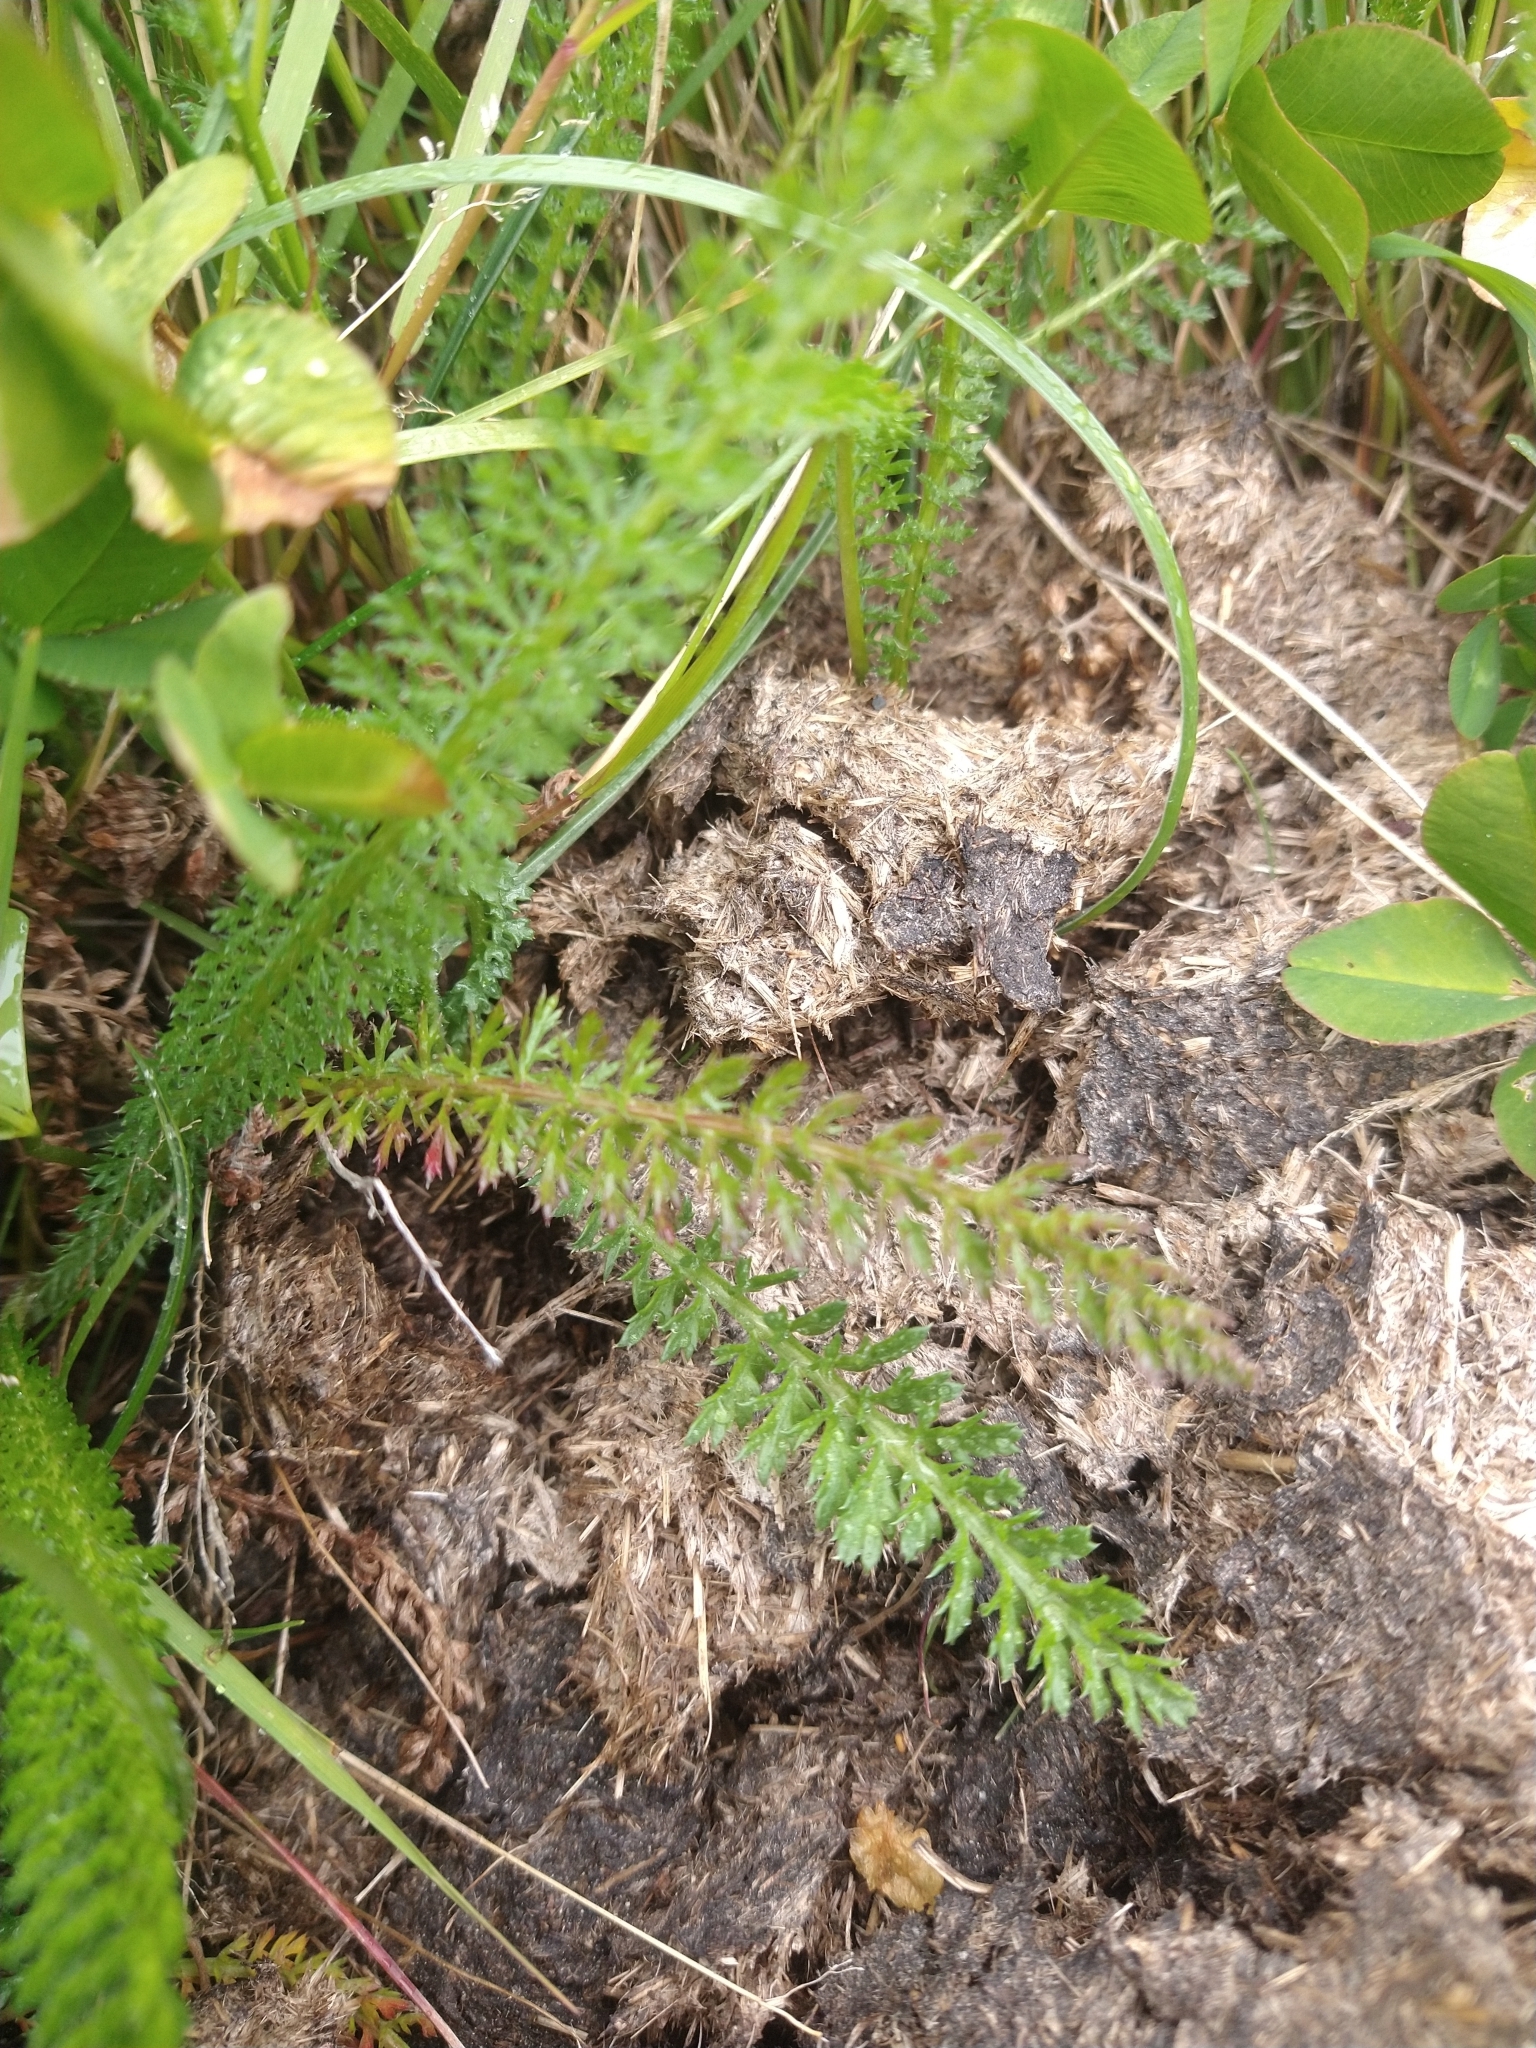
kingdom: Plantae
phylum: Tracheophyta
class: Magnoliopsida
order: Asterales
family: Asteraceae
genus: Achillea
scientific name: Achillea millefolium
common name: Yarrow
